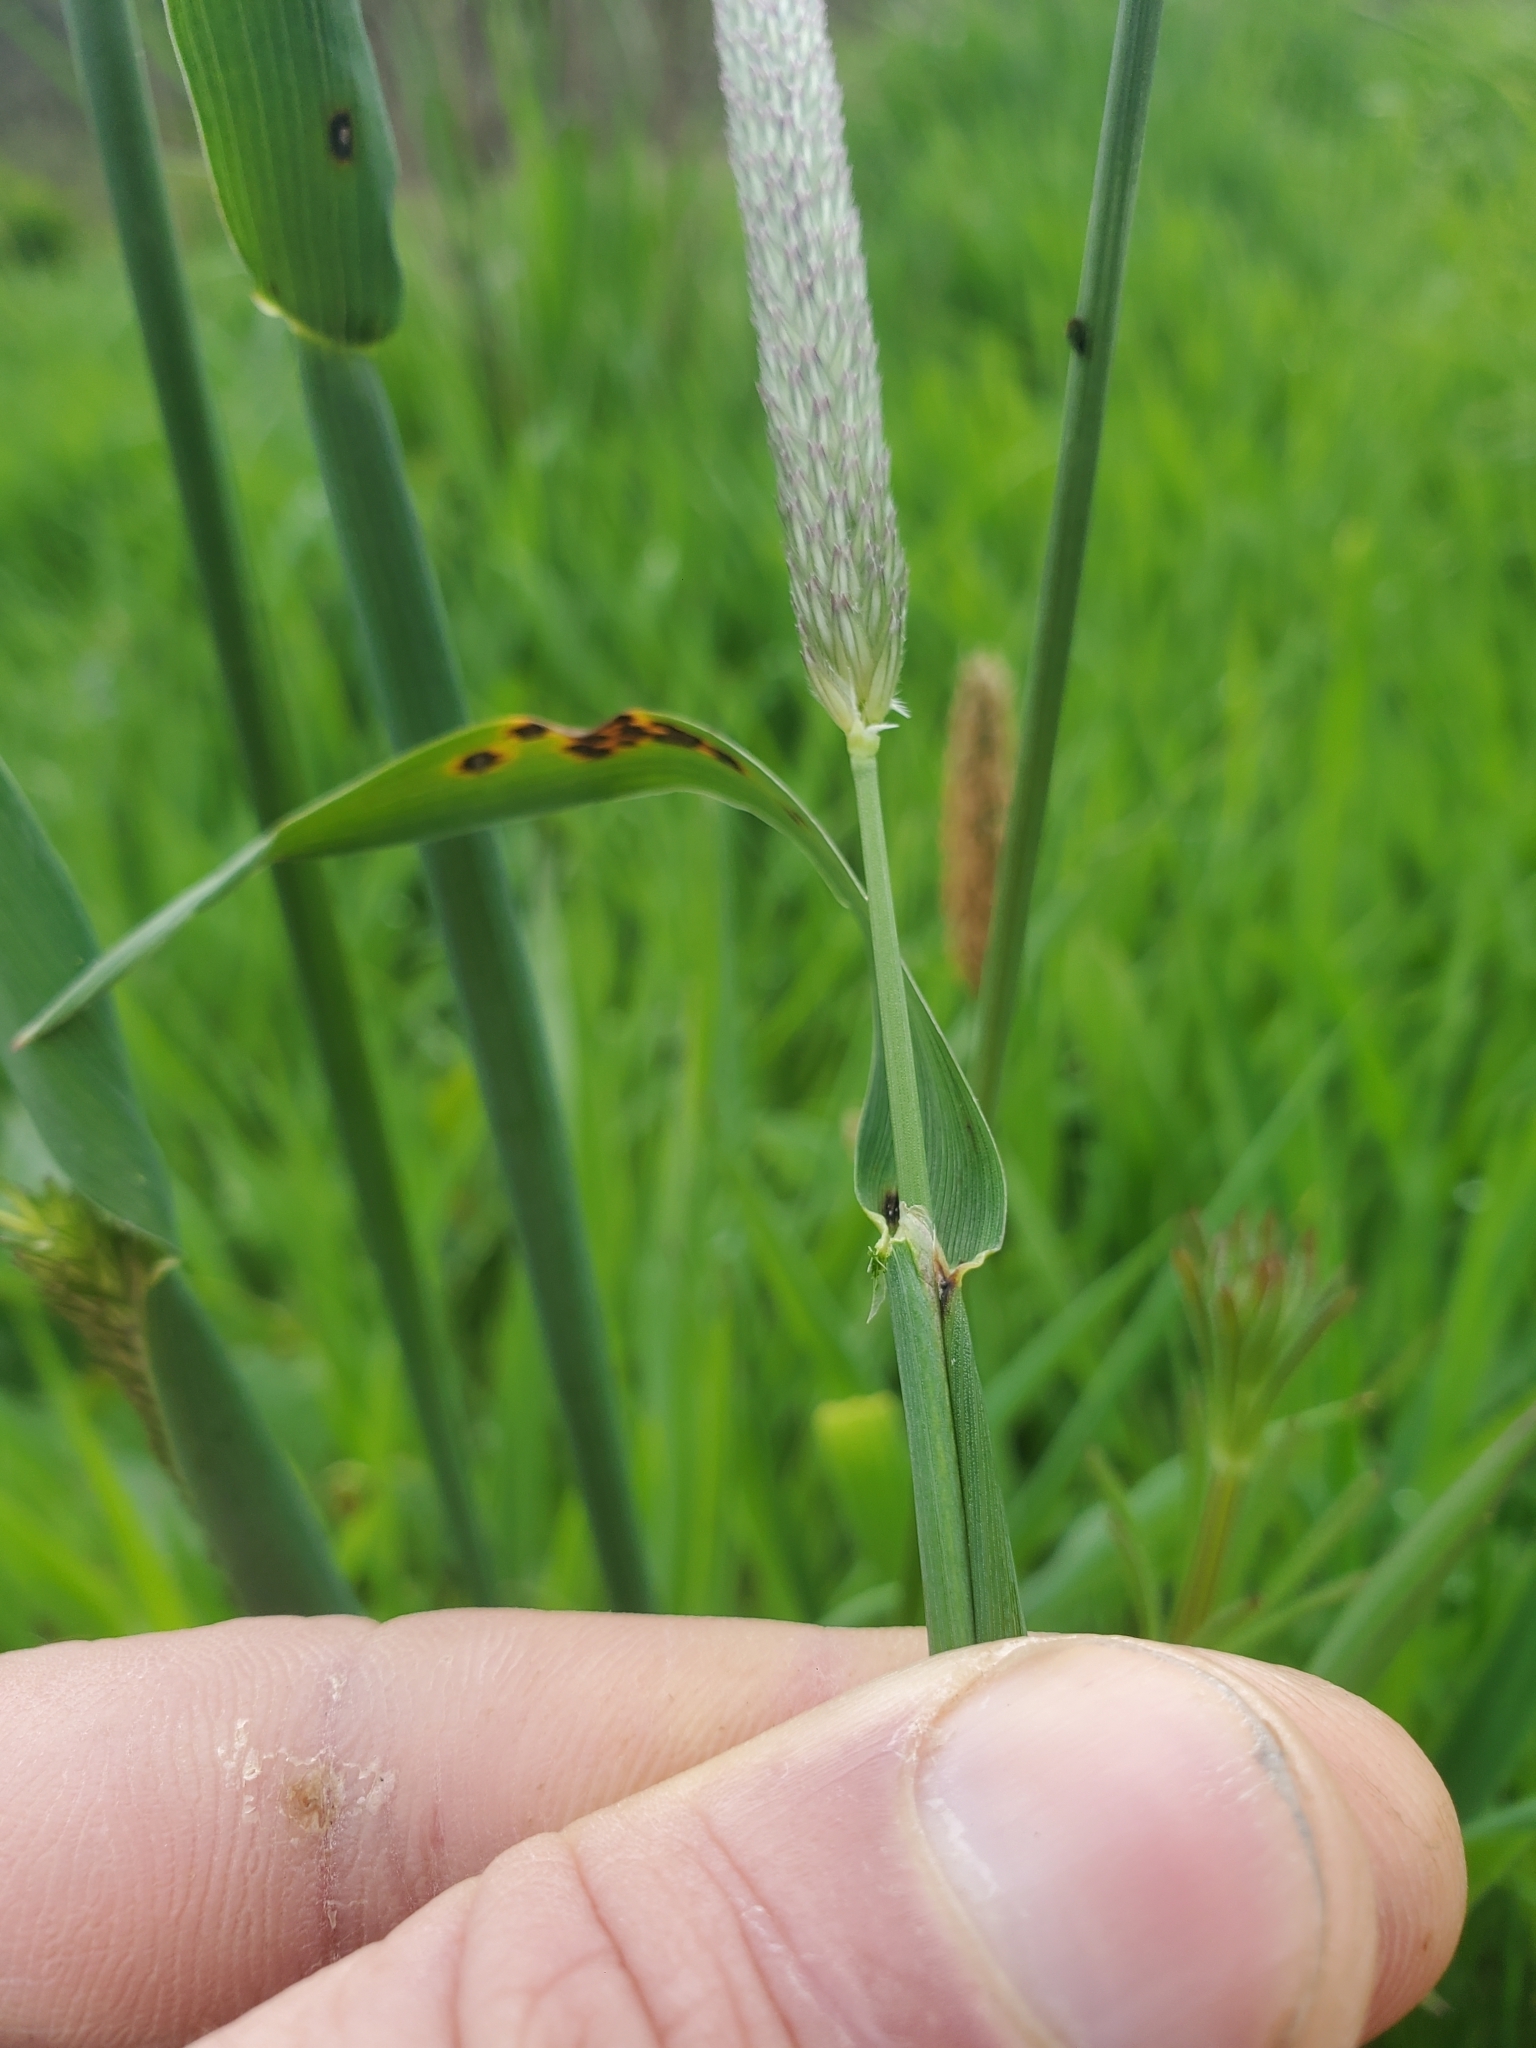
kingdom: Plantae
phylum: Tracheophyta
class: Liliopsida
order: Poales
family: Poaceae
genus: Phleum
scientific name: Phleum pratense
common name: Timothy grass
